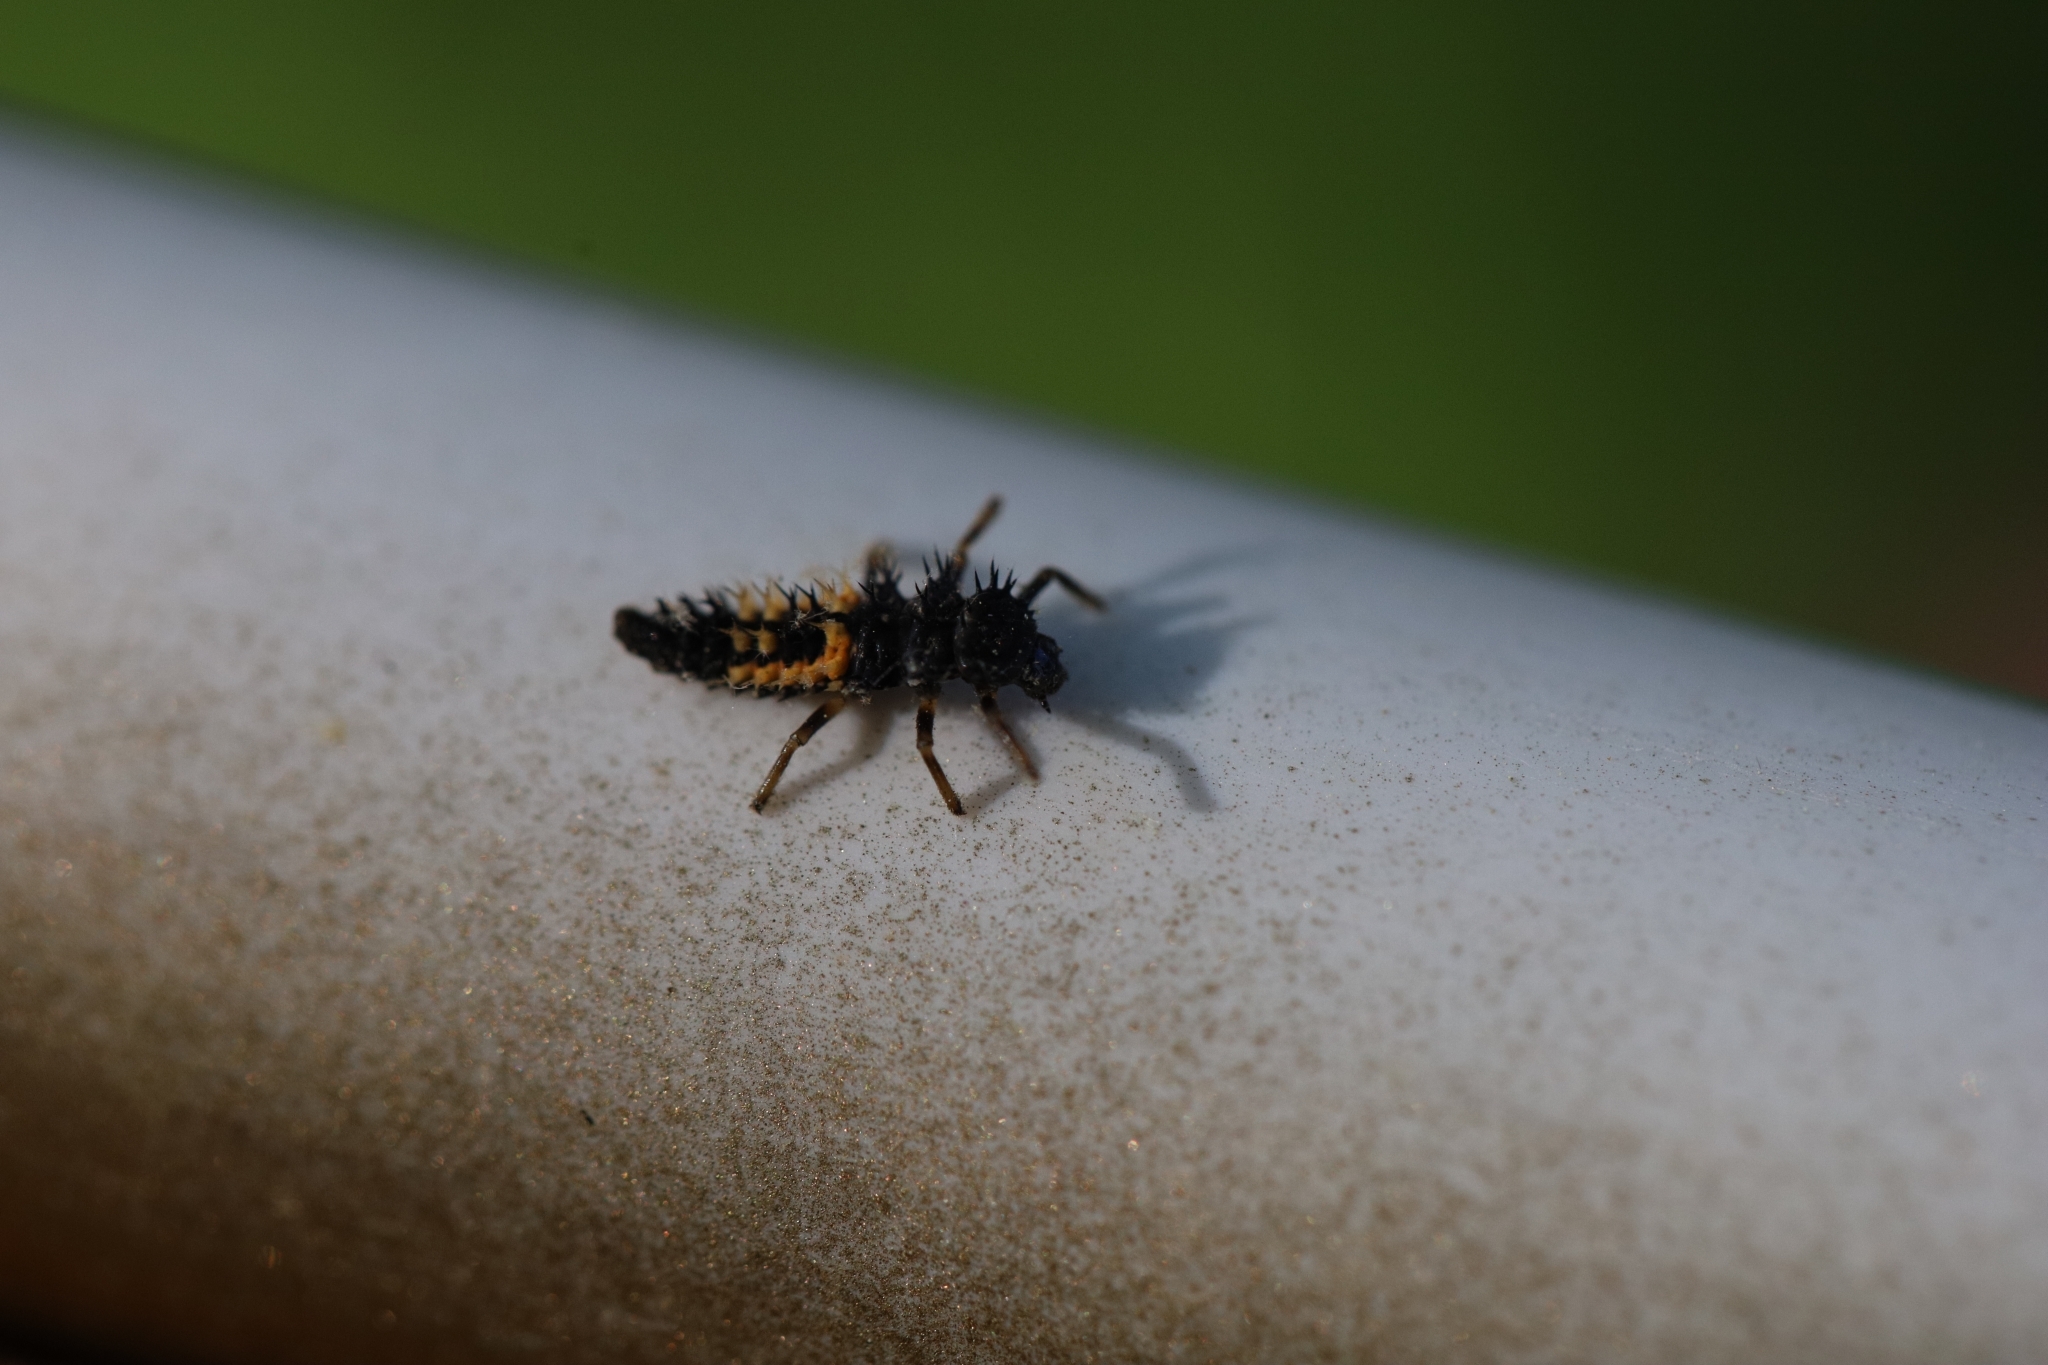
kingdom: Animalia
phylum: Arthropoda
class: Insecta
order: Coleoptera
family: Coccinellidae
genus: Harmonia
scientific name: Harmonia axyridis
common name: Harlequin ladybird
